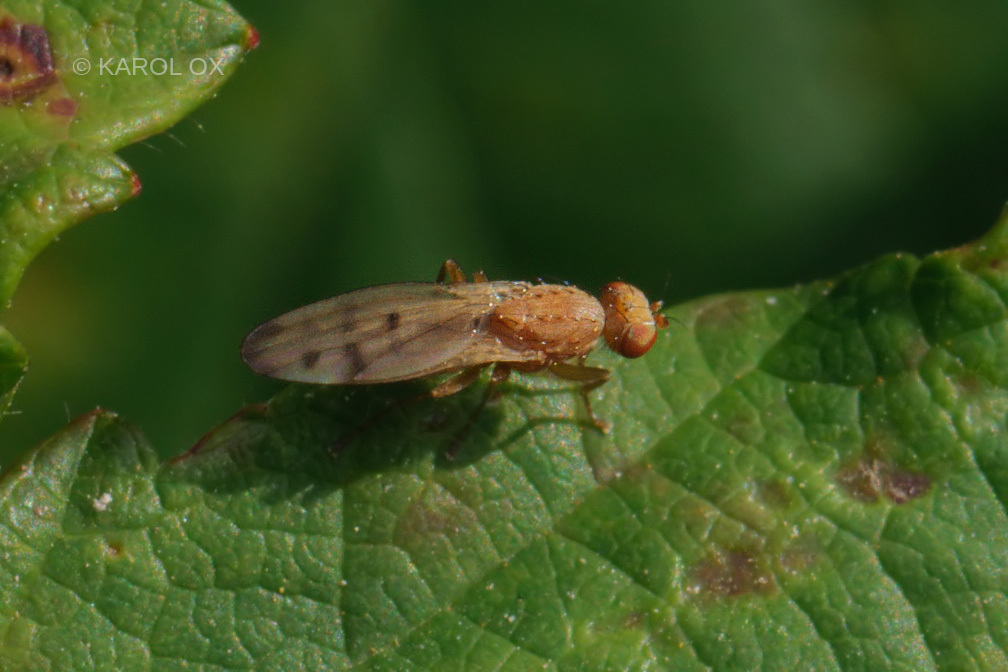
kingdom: Animalia
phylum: Arthropoda
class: Insecta
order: Diptera
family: Opomyzidae
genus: Opomyza
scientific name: Opomyza florum
